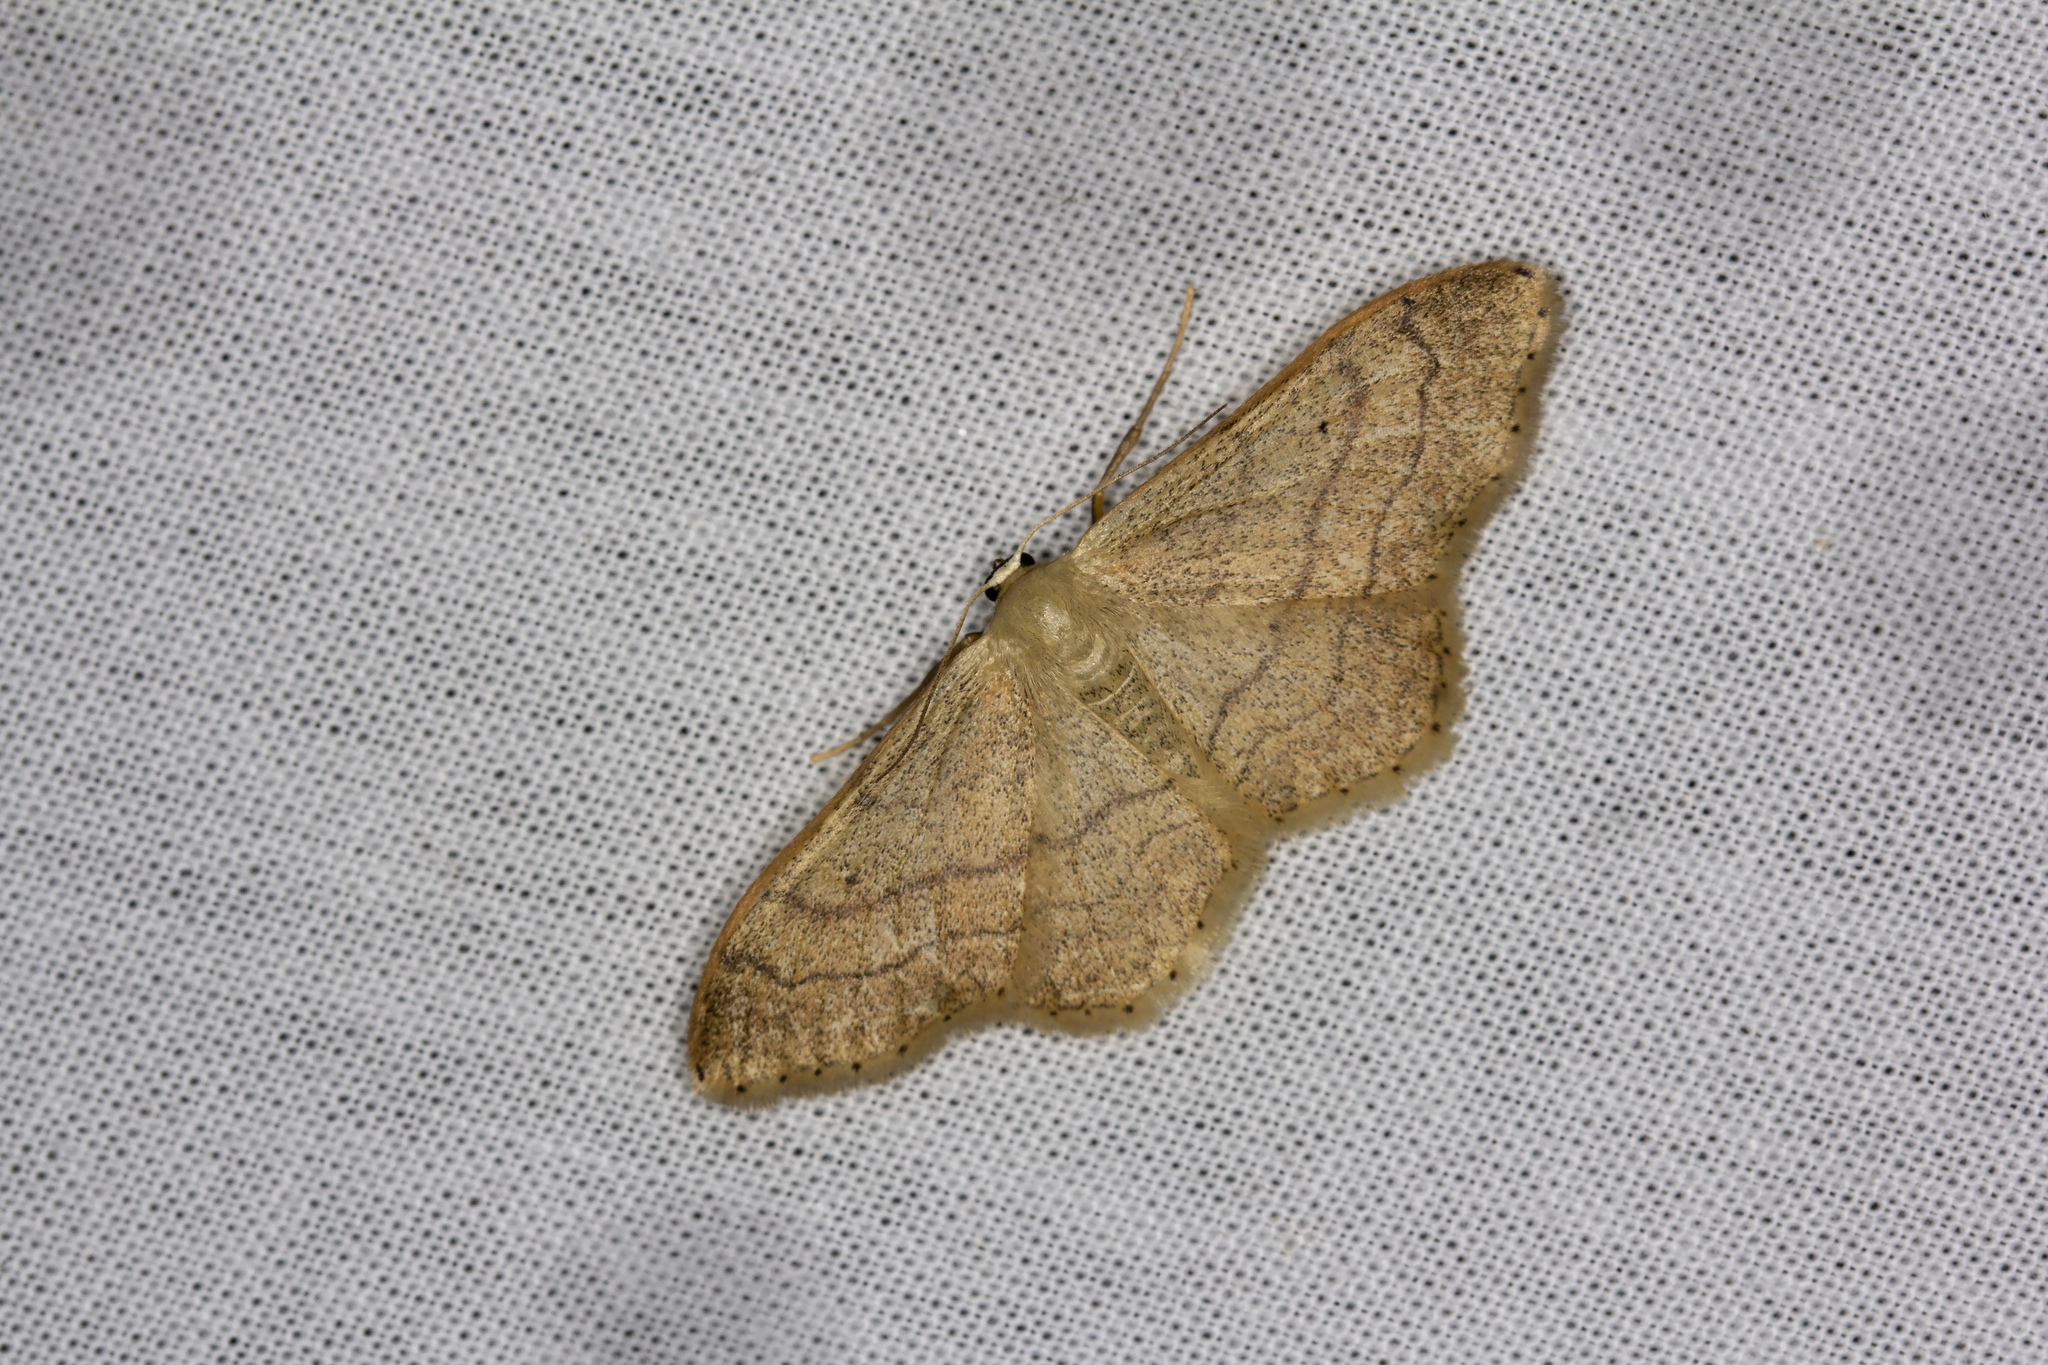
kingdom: Animalia
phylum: Arthropoda
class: Insecta
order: Lepidoptera
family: Geometridae
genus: Idaea
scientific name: Idaea aversata
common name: Riband wave
